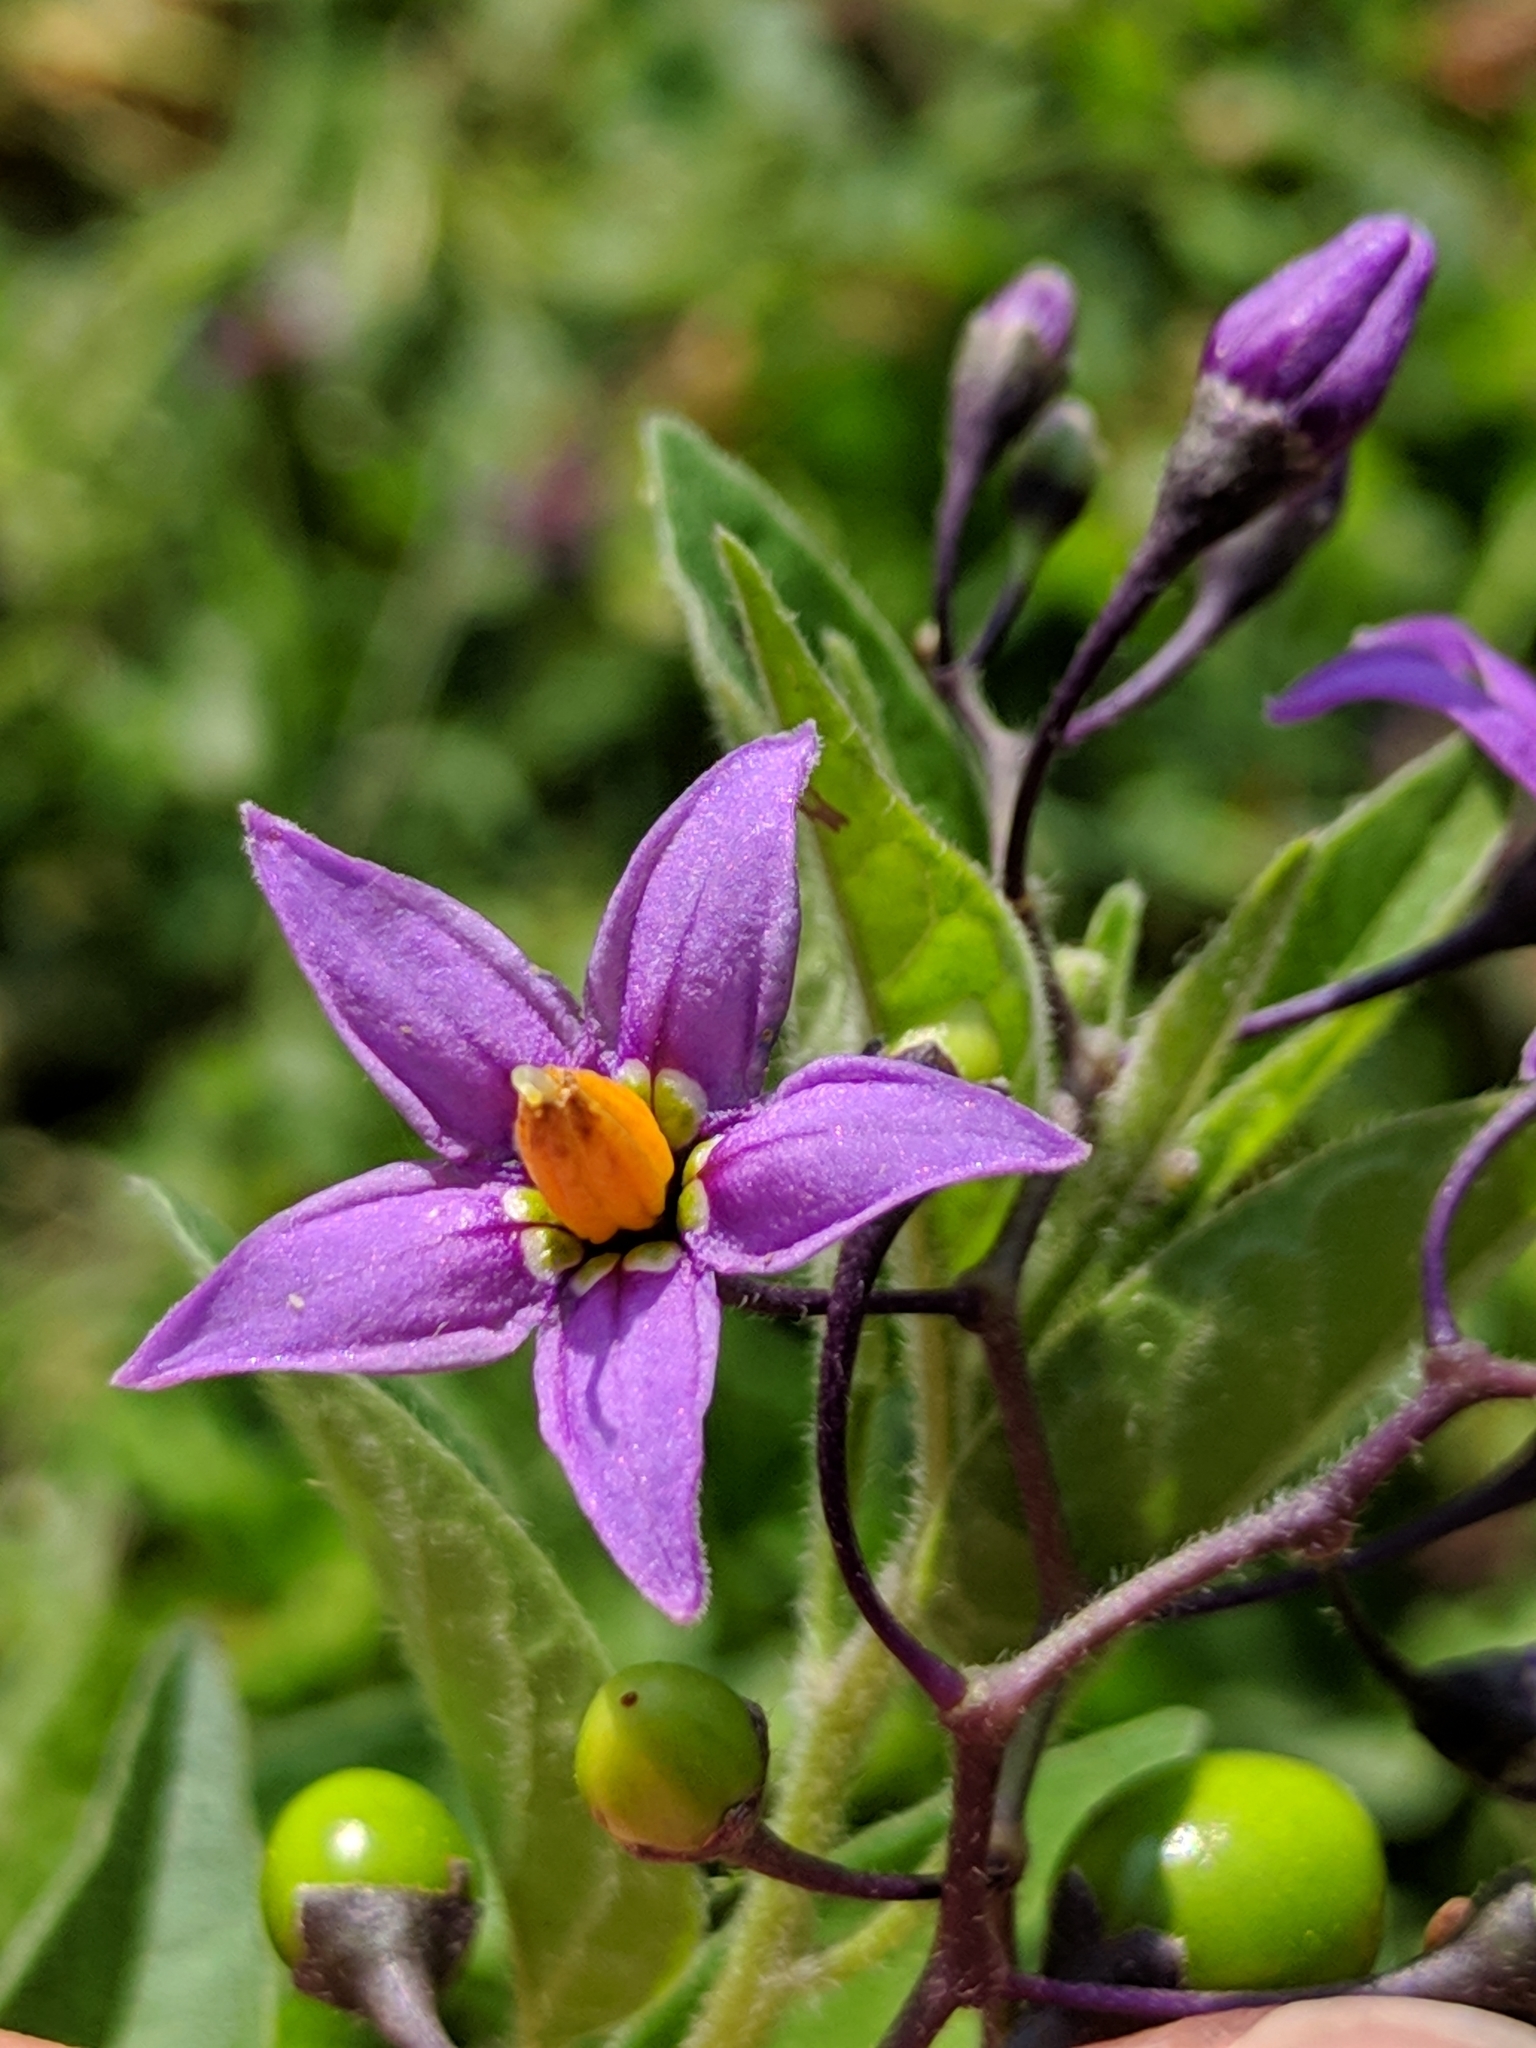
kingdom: Plantae
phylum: Tracheophyta
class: Magnoliopsida
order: Solanales
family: Solanaceae
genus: Solanum
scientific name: Solanum dulcamara
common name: Climbing nightshade
